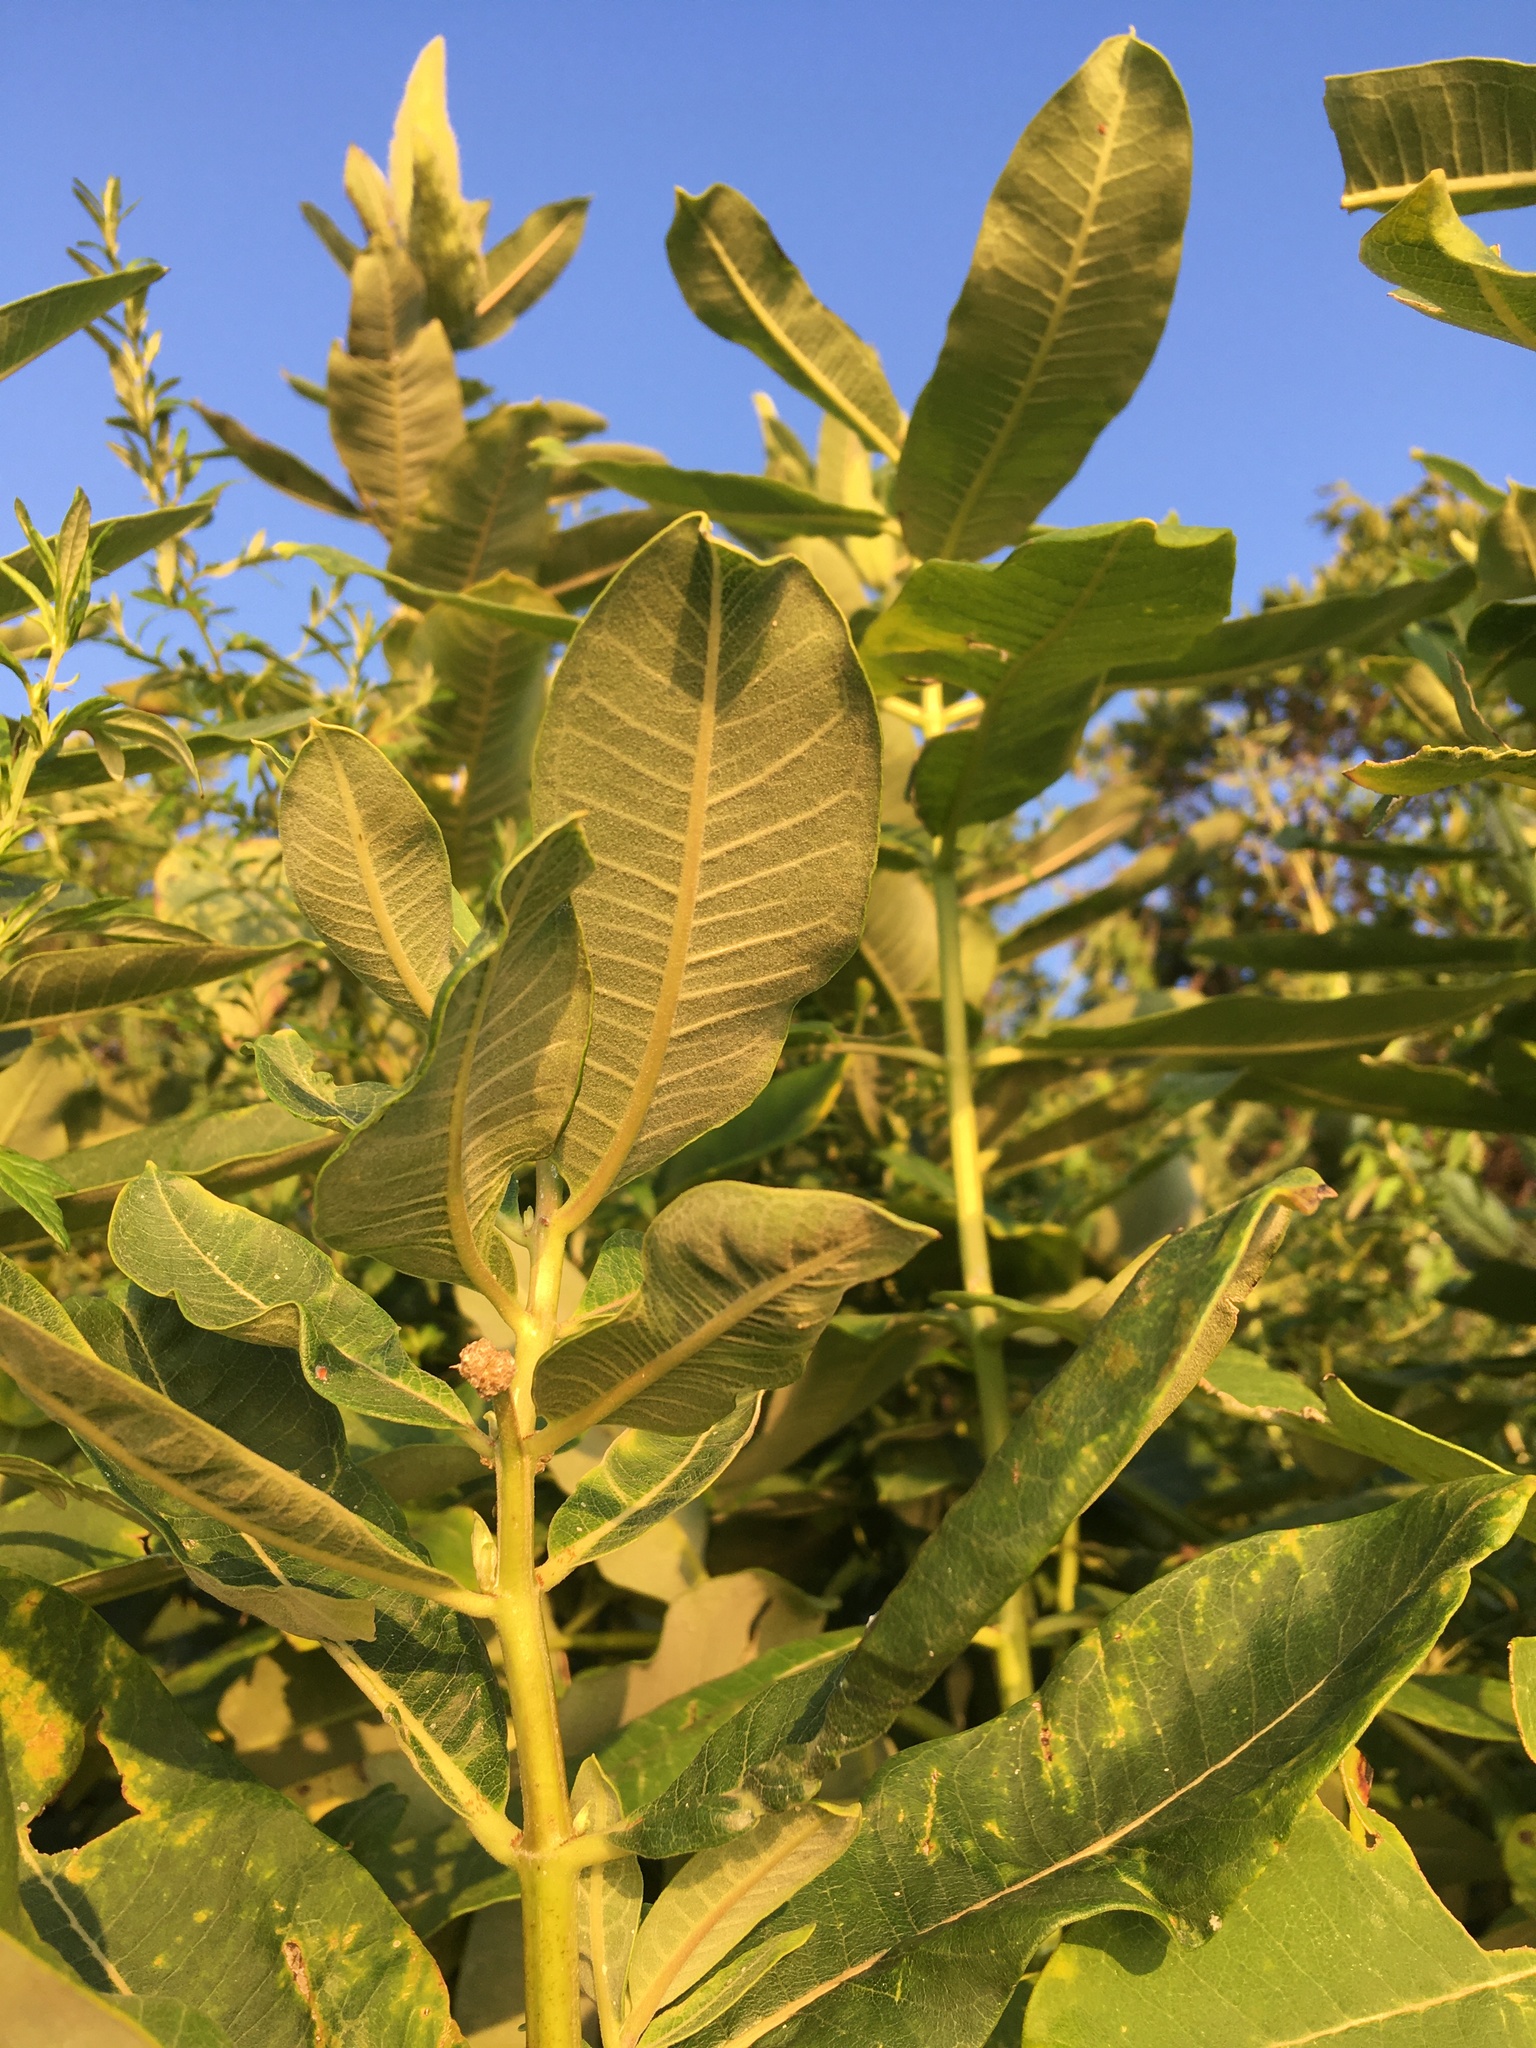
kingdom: Plantae
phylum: Tracheophyta
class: Magnoliopsida
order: Gentianales
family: Apocynaceae
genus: Asclepias
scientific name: Asclepias syriaca
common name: Common milkweed
